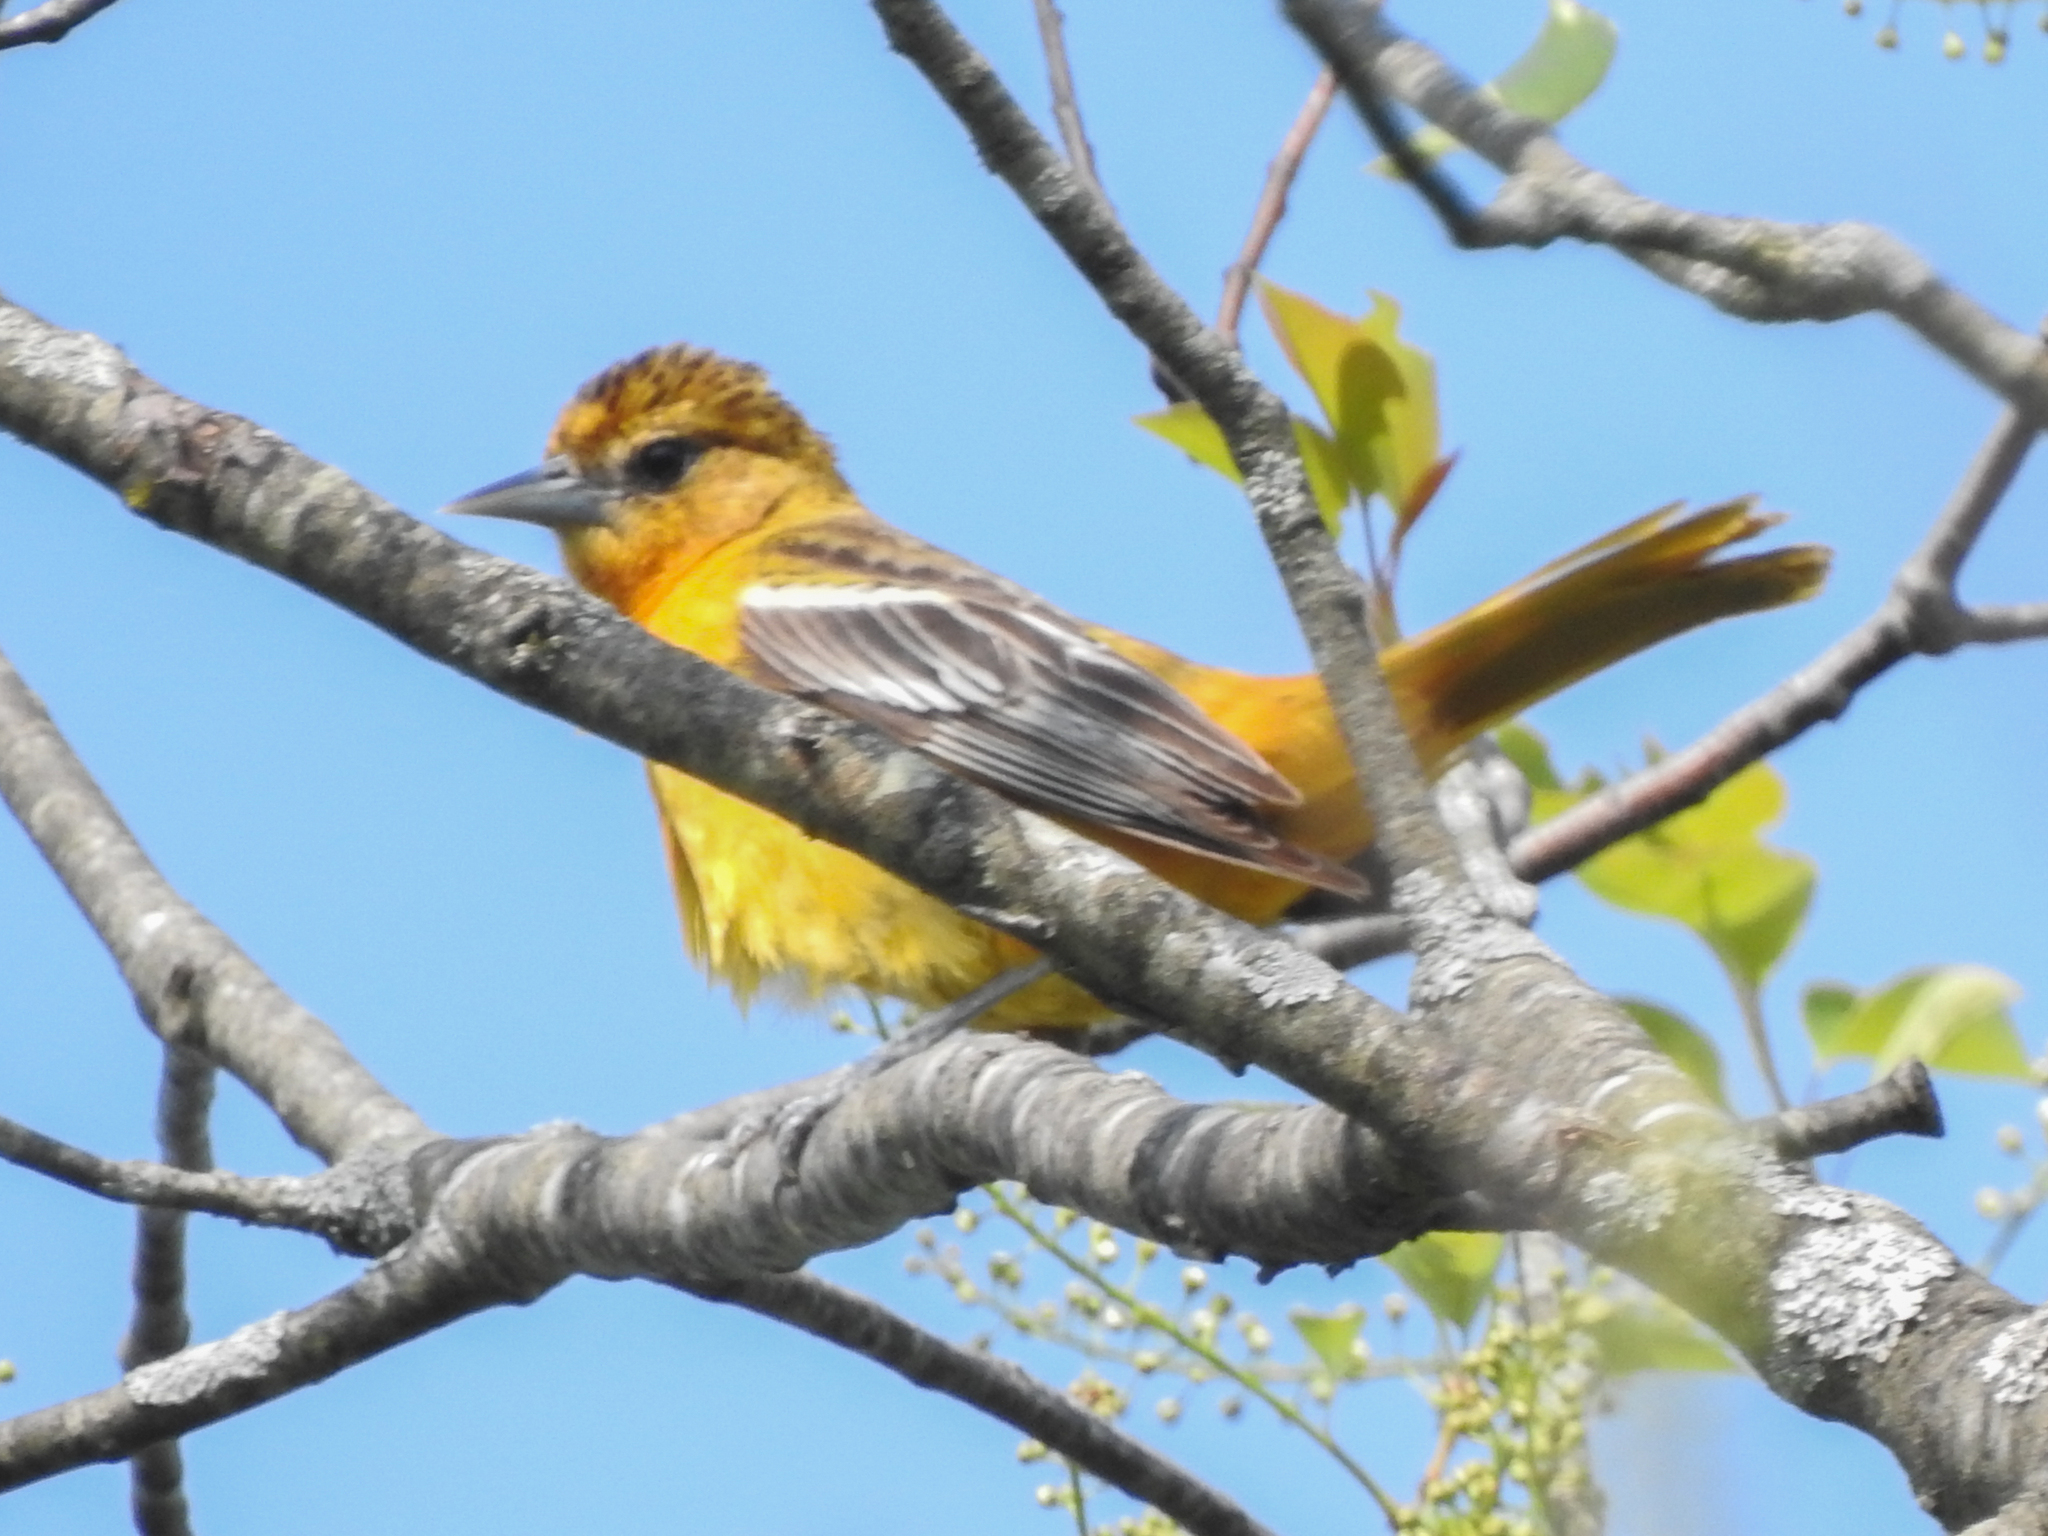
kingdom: Animalia
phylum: Chordata
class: Aves
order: Passeriformes
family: Icteridae
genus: Icterus
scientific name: Icterus galbula
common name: Baltimore oriole
